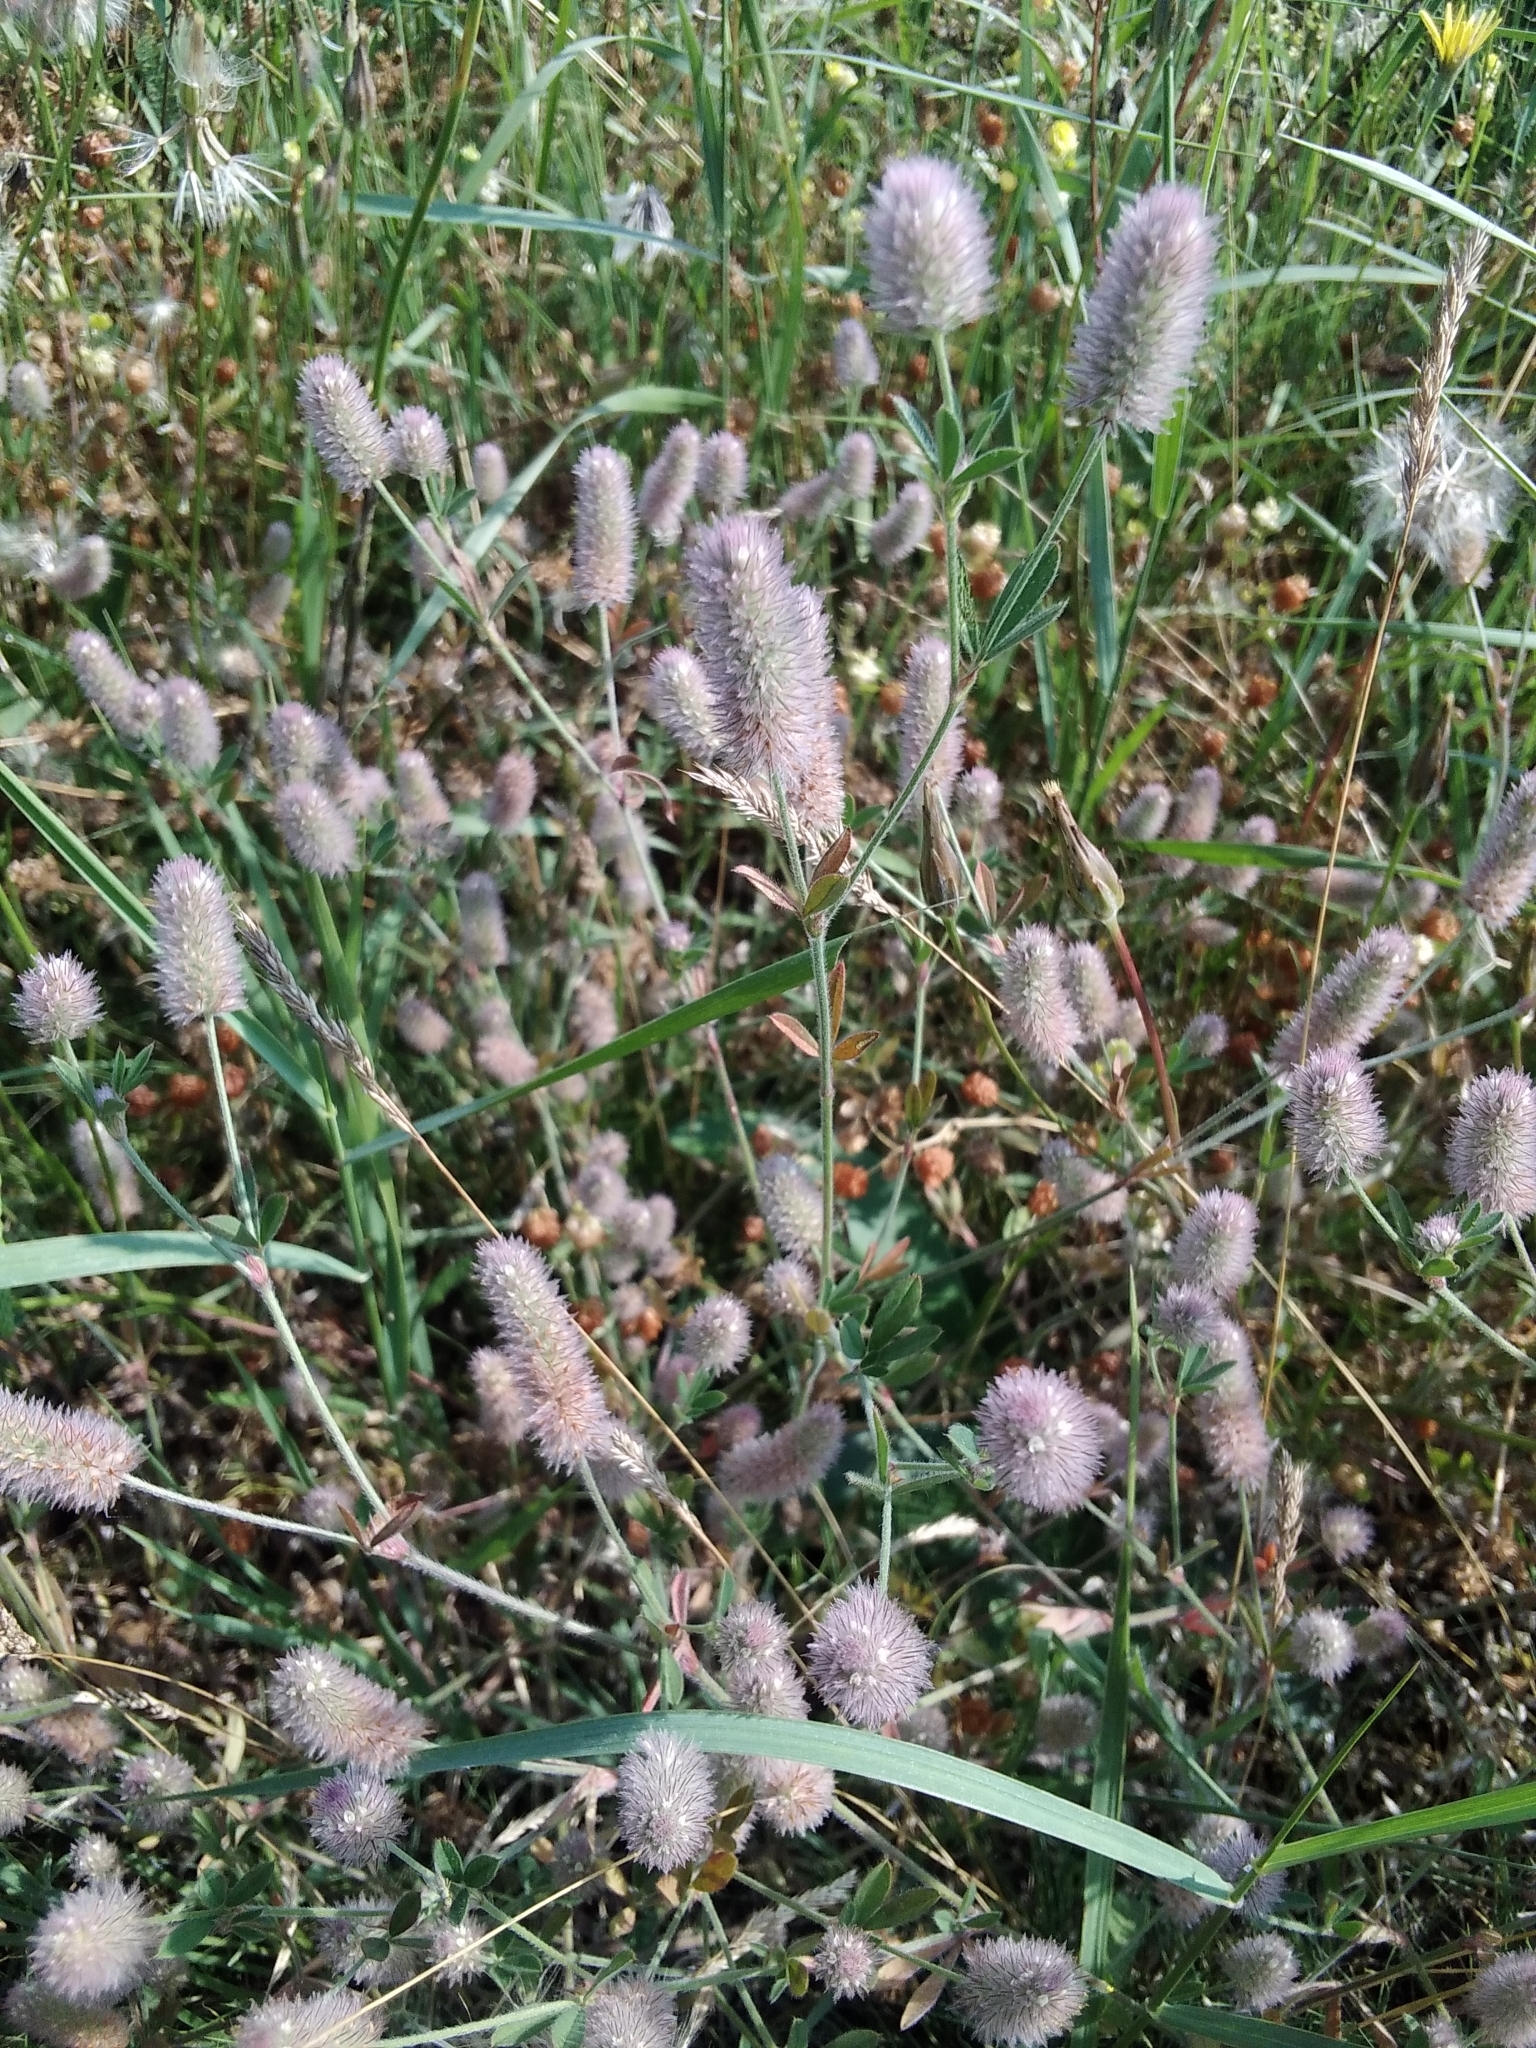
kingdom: Plantae
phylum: Tracheophyta
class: Magnoliopsida
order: Fabales
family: Fabaceae
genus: Trifolium
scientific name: Trifolium arvense
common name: Hare's-foot clover
